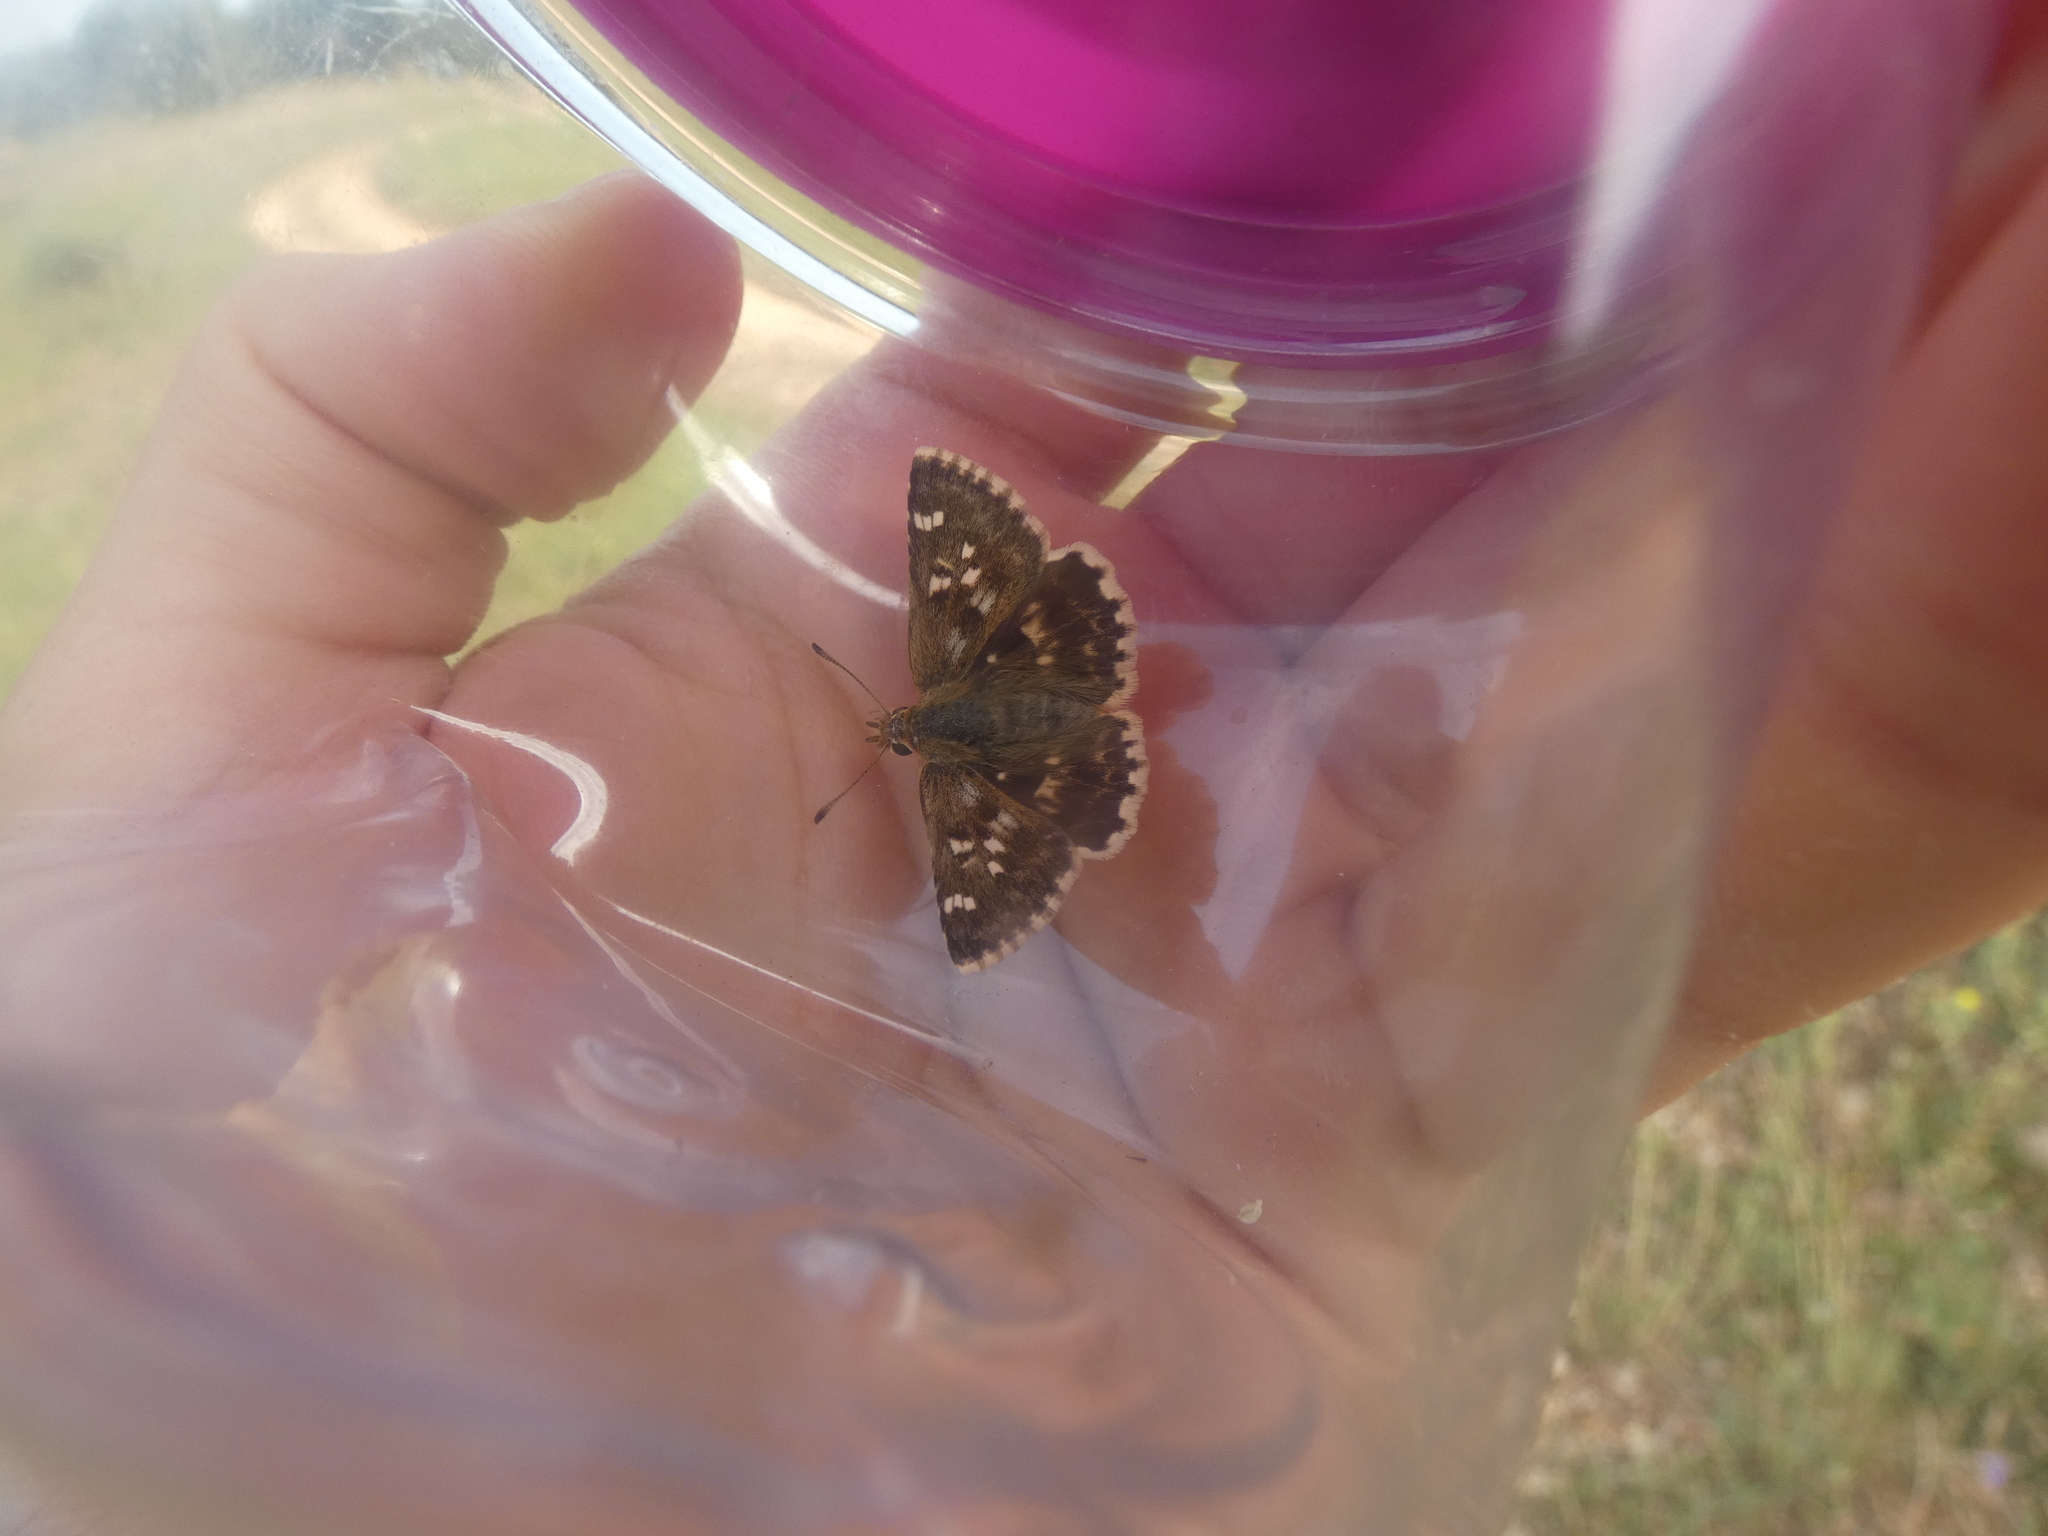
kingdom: Animalia
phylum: Arthropoda
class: Insecta
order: Lepidoptera
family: Hesperiidae
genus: Syrichtus
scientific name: Syrichtus Muschampia proto
